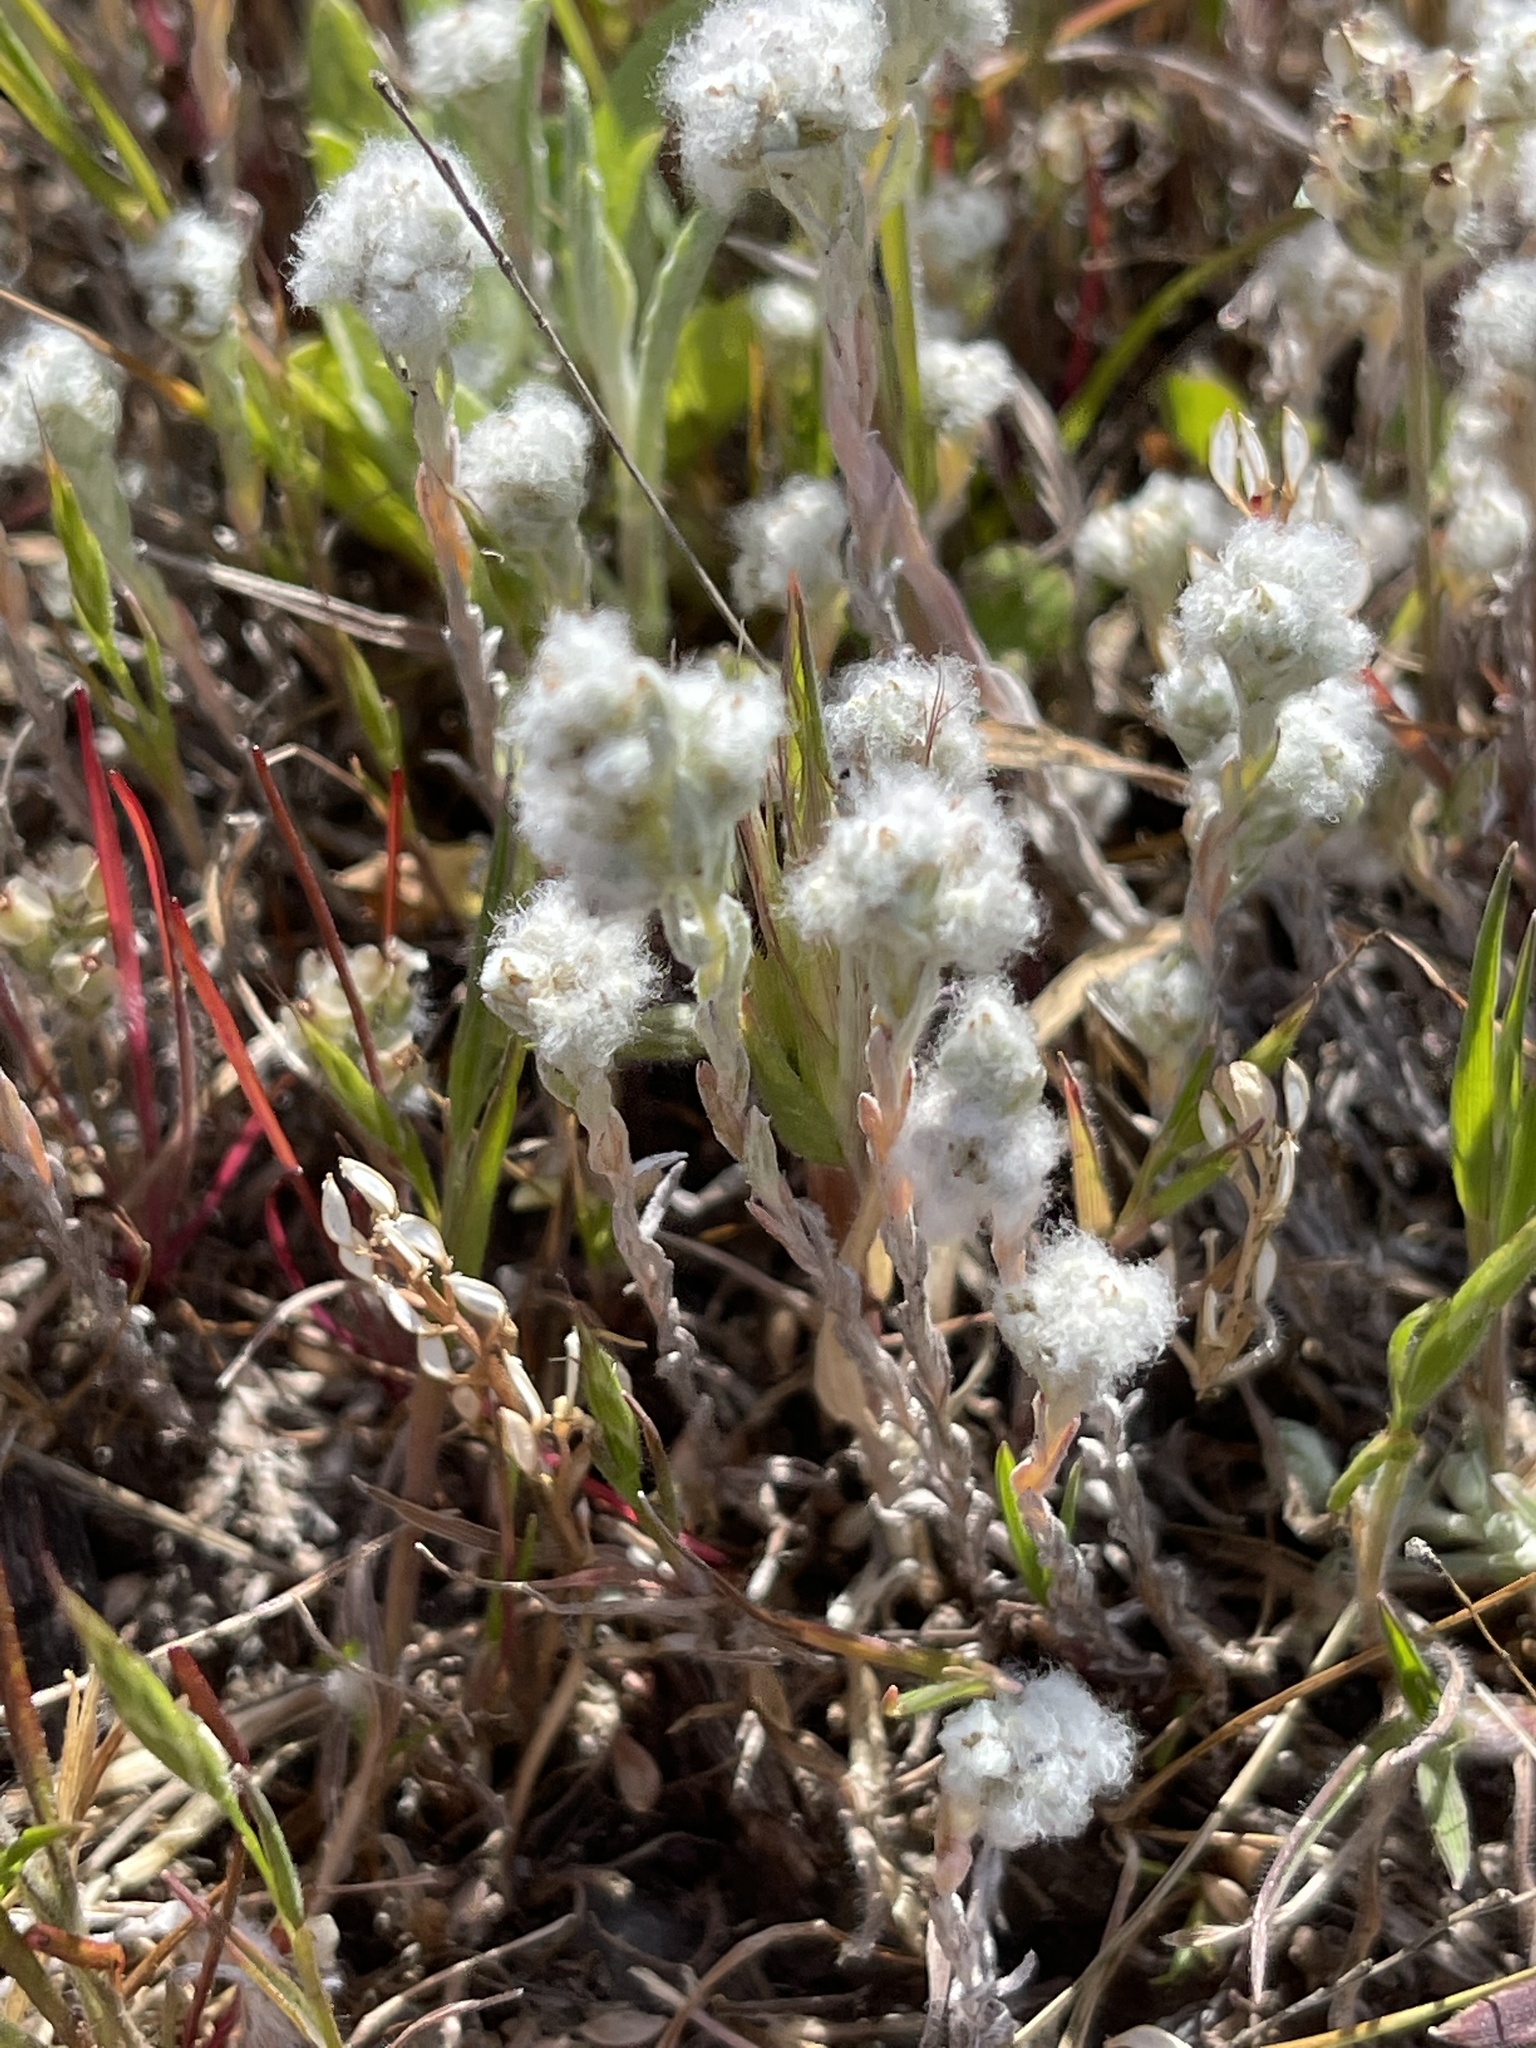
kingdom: Plantae
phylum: Tracheophyta
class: Magnoliopsida
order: Asterales
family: Asteraceae
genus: Bombycilaena
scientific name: Bombycilaena californica
